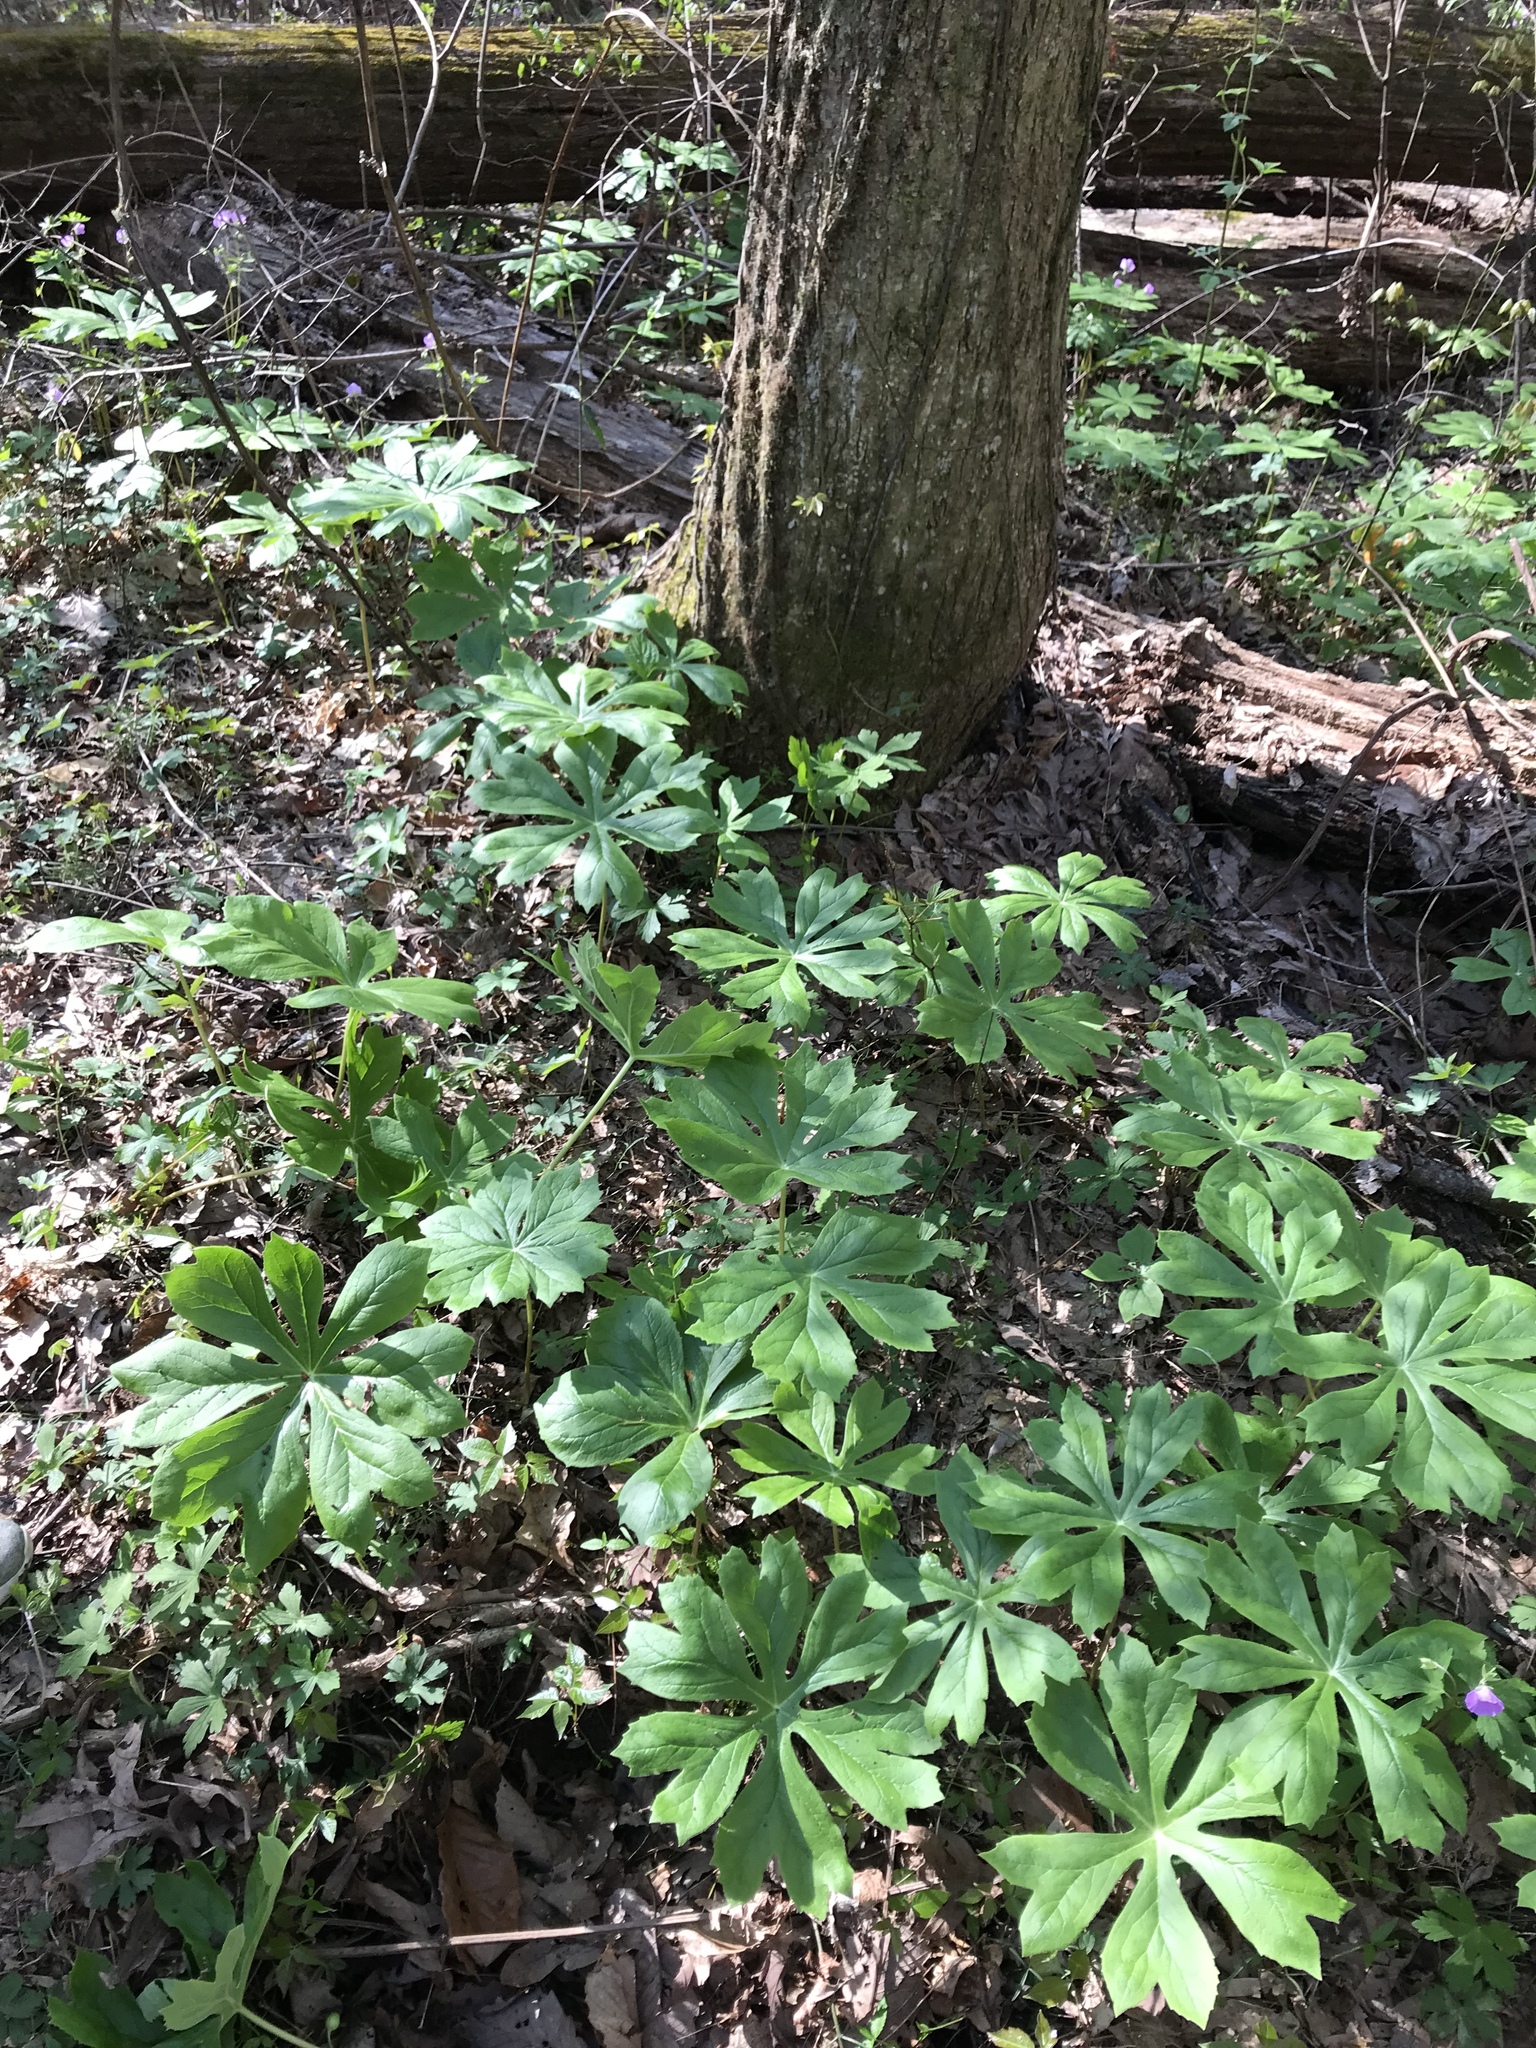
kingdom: Plantae
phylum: Tracheophyta
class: Magnoliopsida
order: Ranunculales
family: Berberidaceae
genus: Podophyllum
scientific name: Podophyllum peltatum
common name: Wild mandrake
